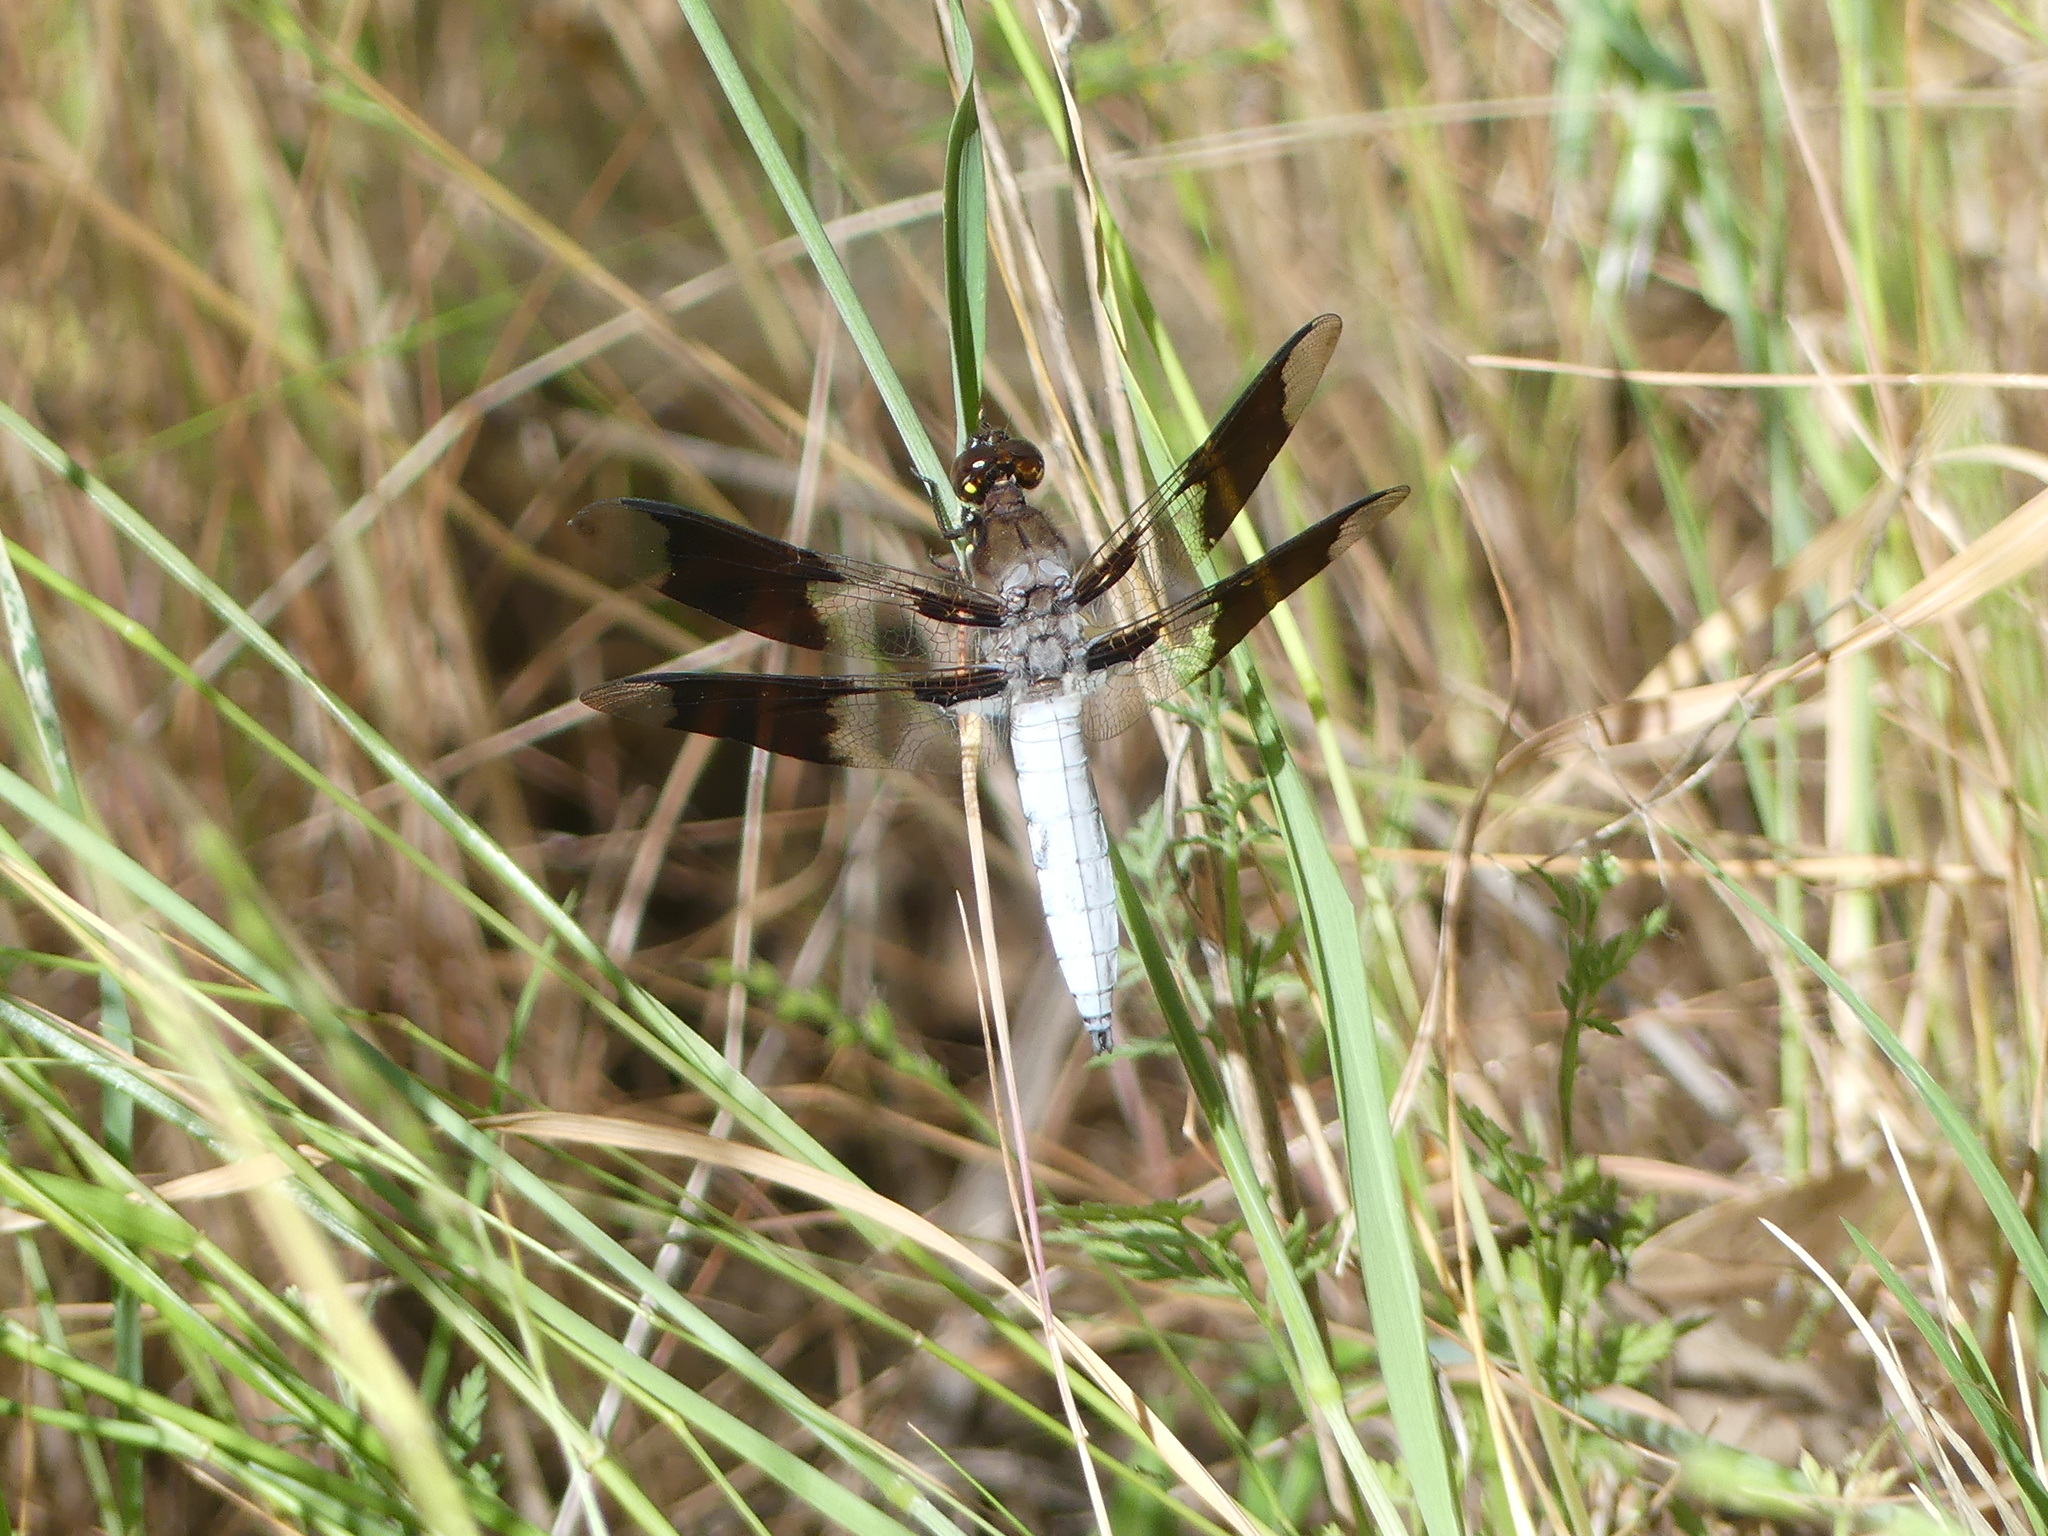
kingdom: Animalia
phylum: Arthropoda
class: Insecta
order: Odonata
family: Libellulidae
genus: Plathemis
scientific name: Plathemis lydia
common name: Common whitetail
